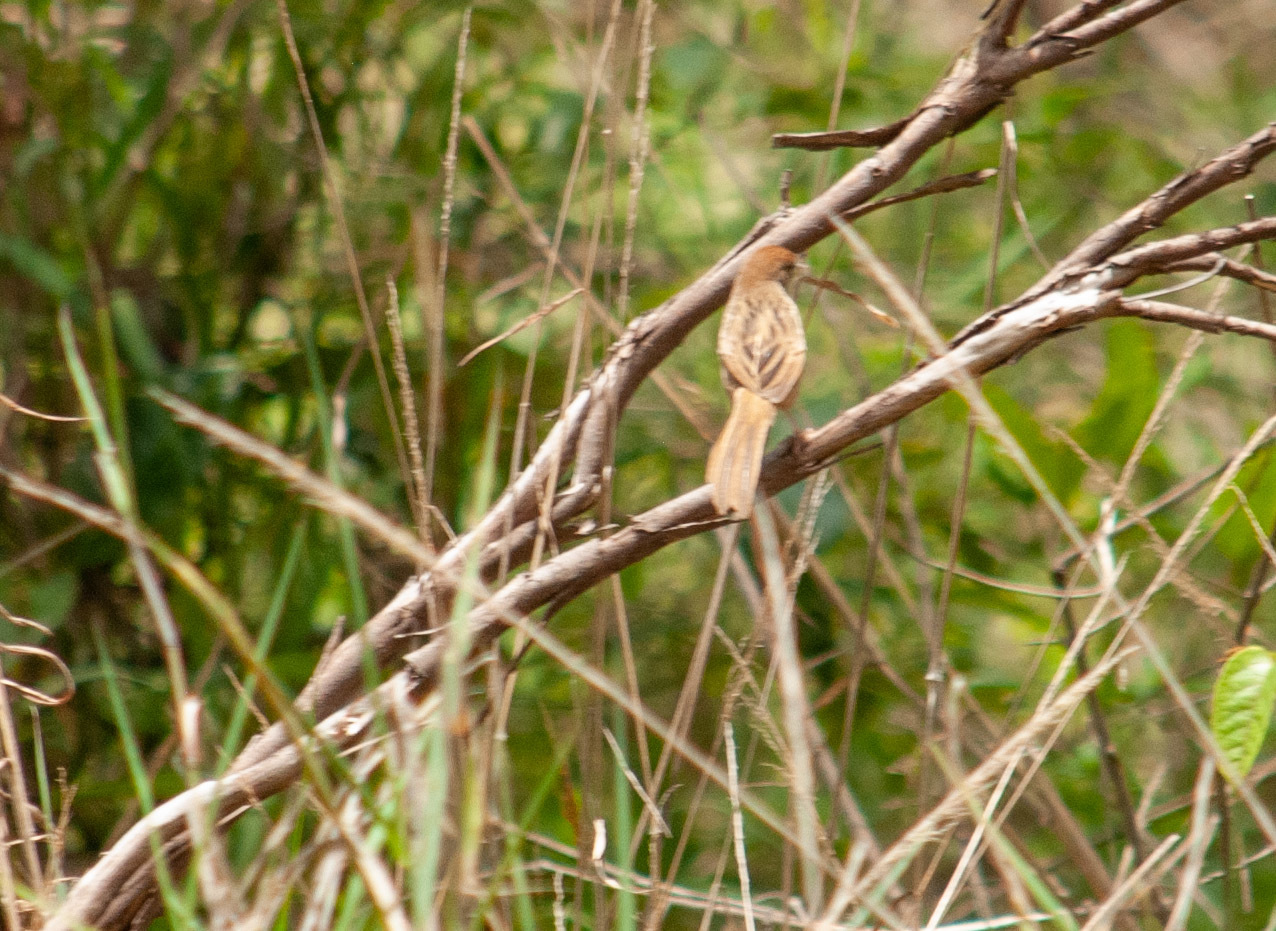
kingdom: Animalia
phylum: Chordata
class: Aves
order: Passeriformes
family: Locustellidae
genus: Megalurus
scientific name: Megalurus timoriensis
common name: Tawny grassbird
